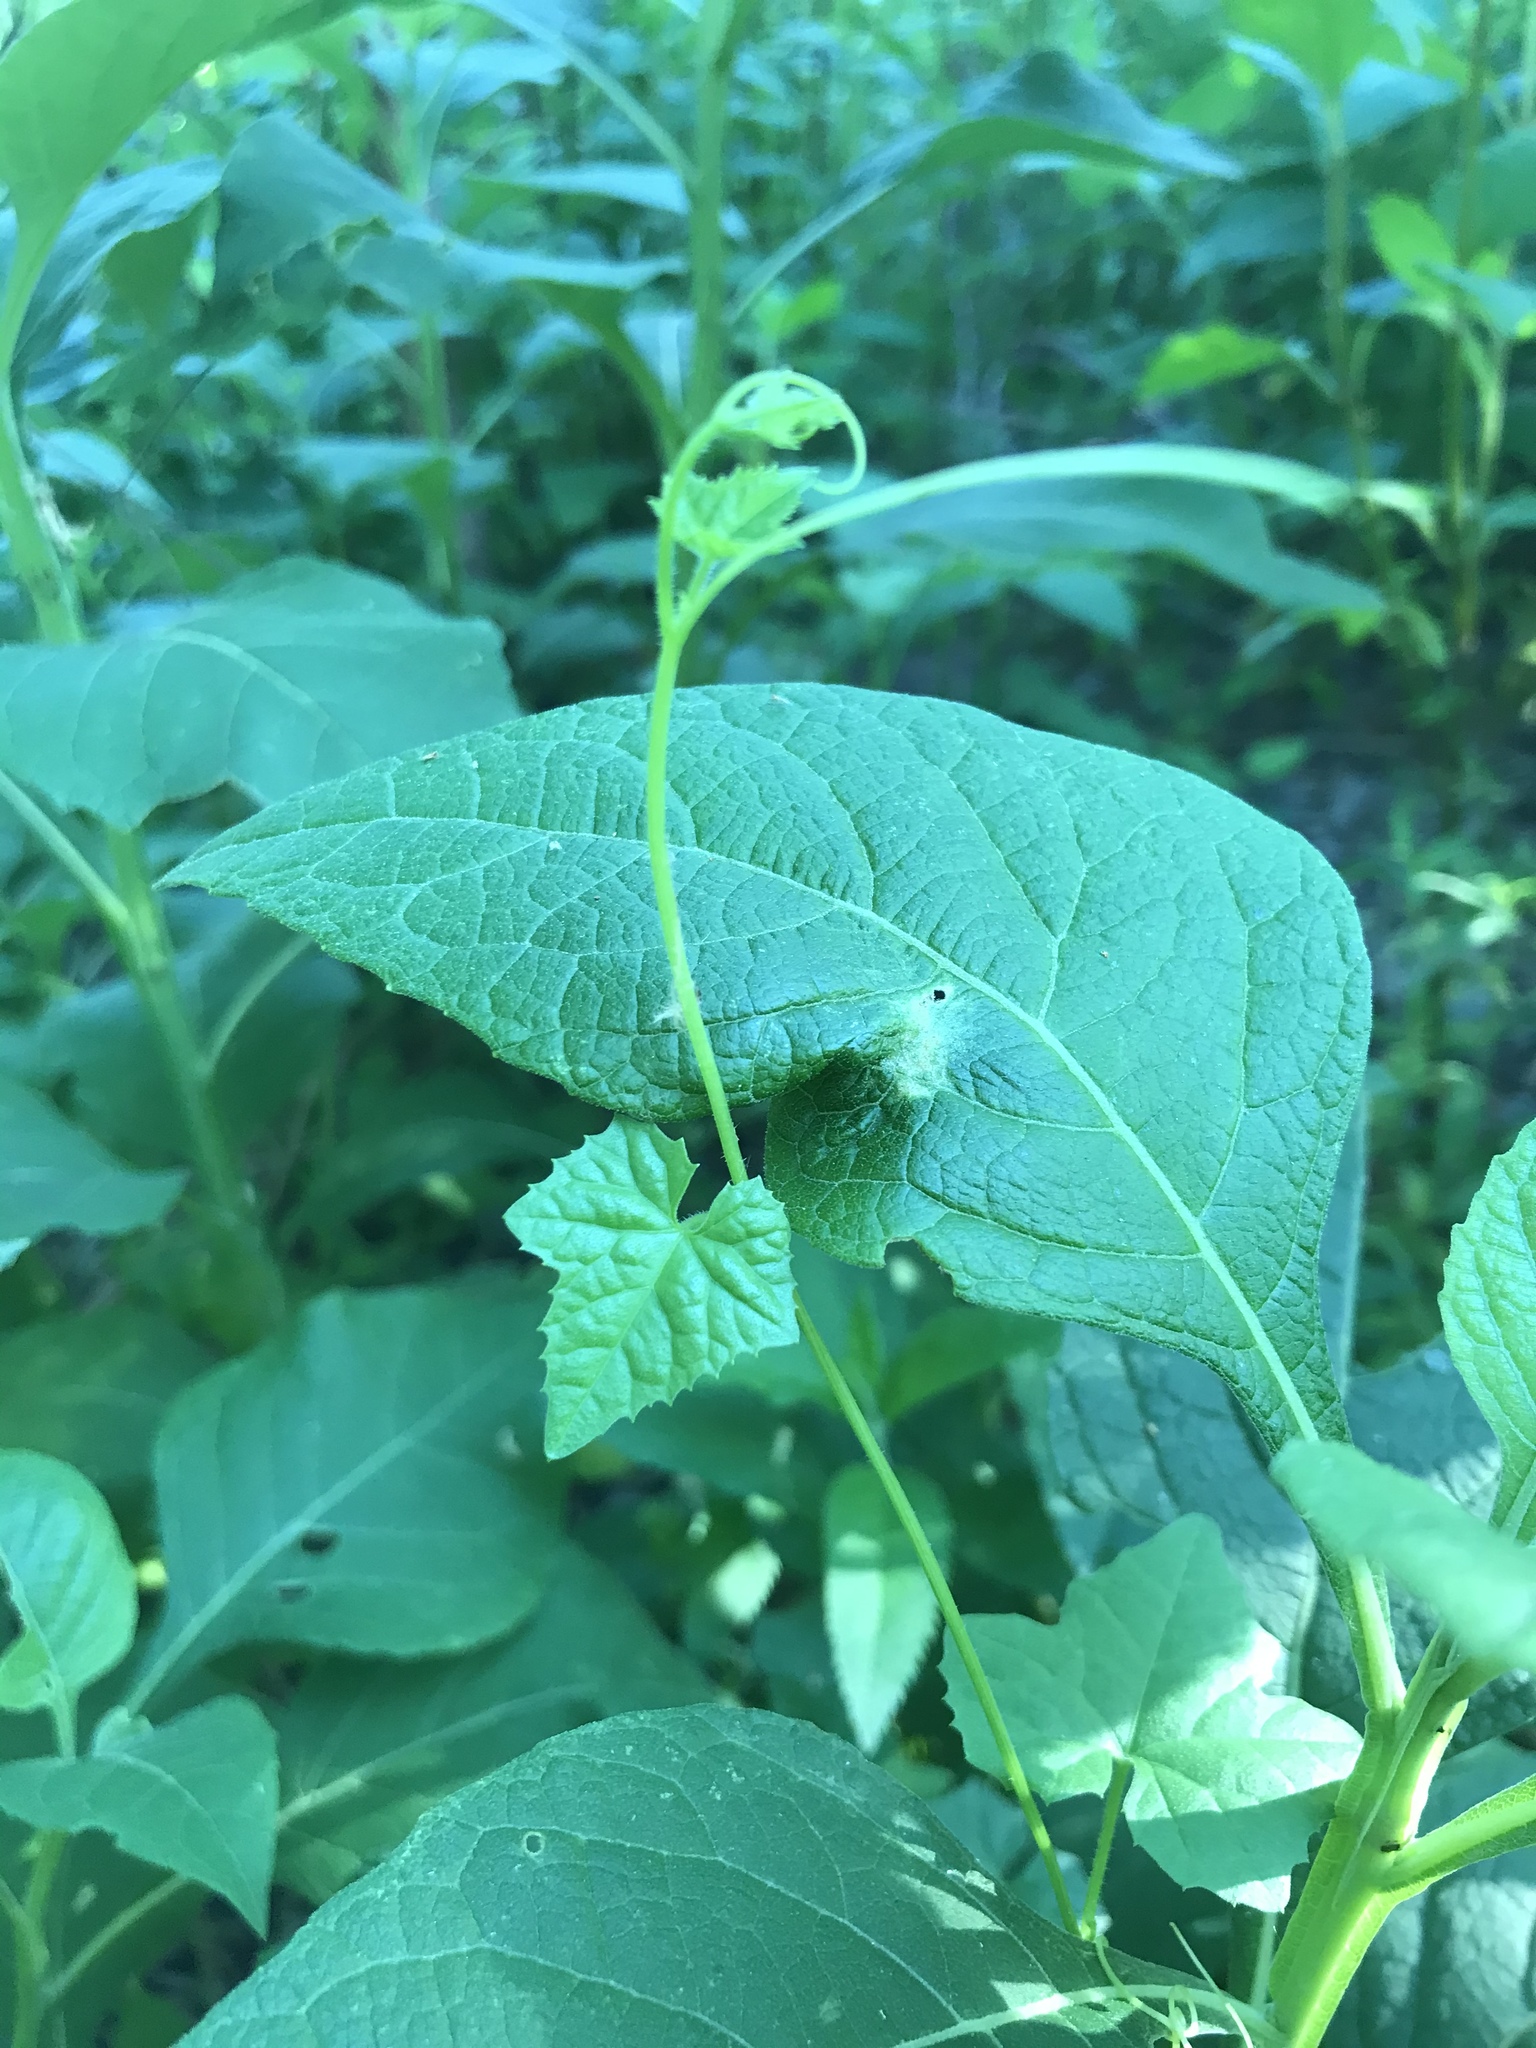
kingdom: Plantae
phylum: Tracheophyta
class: Magnoliopsida
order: Cucurbitales
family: Cucurbitaceae
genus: Melothria
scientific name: Melothria pendula
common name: Creeping-cucumber
